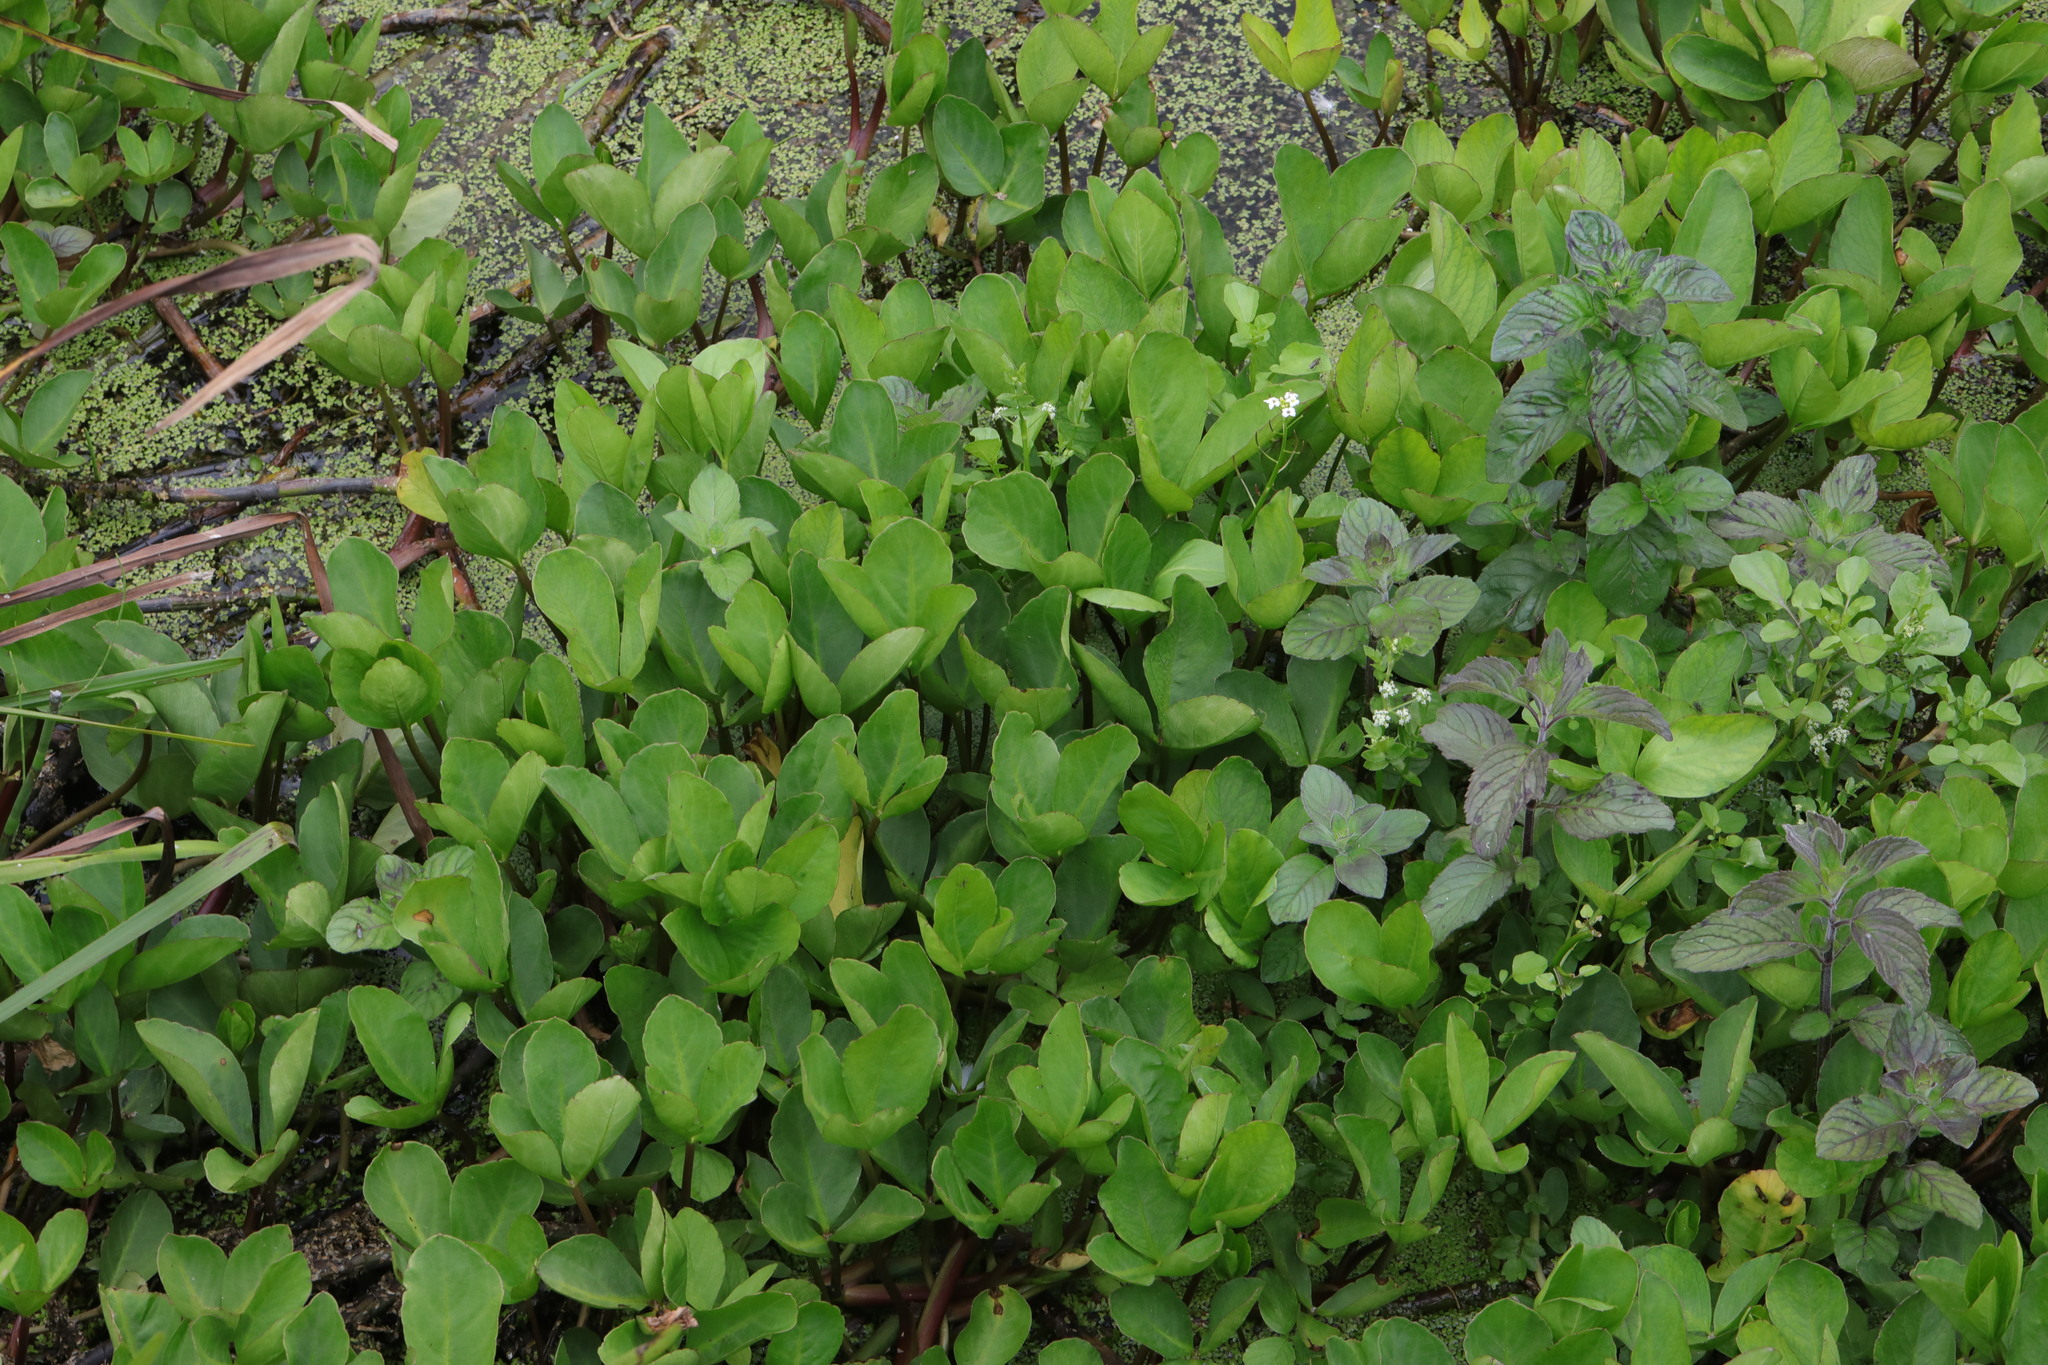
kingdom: Plantae
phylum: Tracheophyta
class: Magnoliopsida
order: Asterales
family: Menyanthaceae
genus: Menyanthes
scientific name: Menyanthes trifoliata
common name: Bogbean
